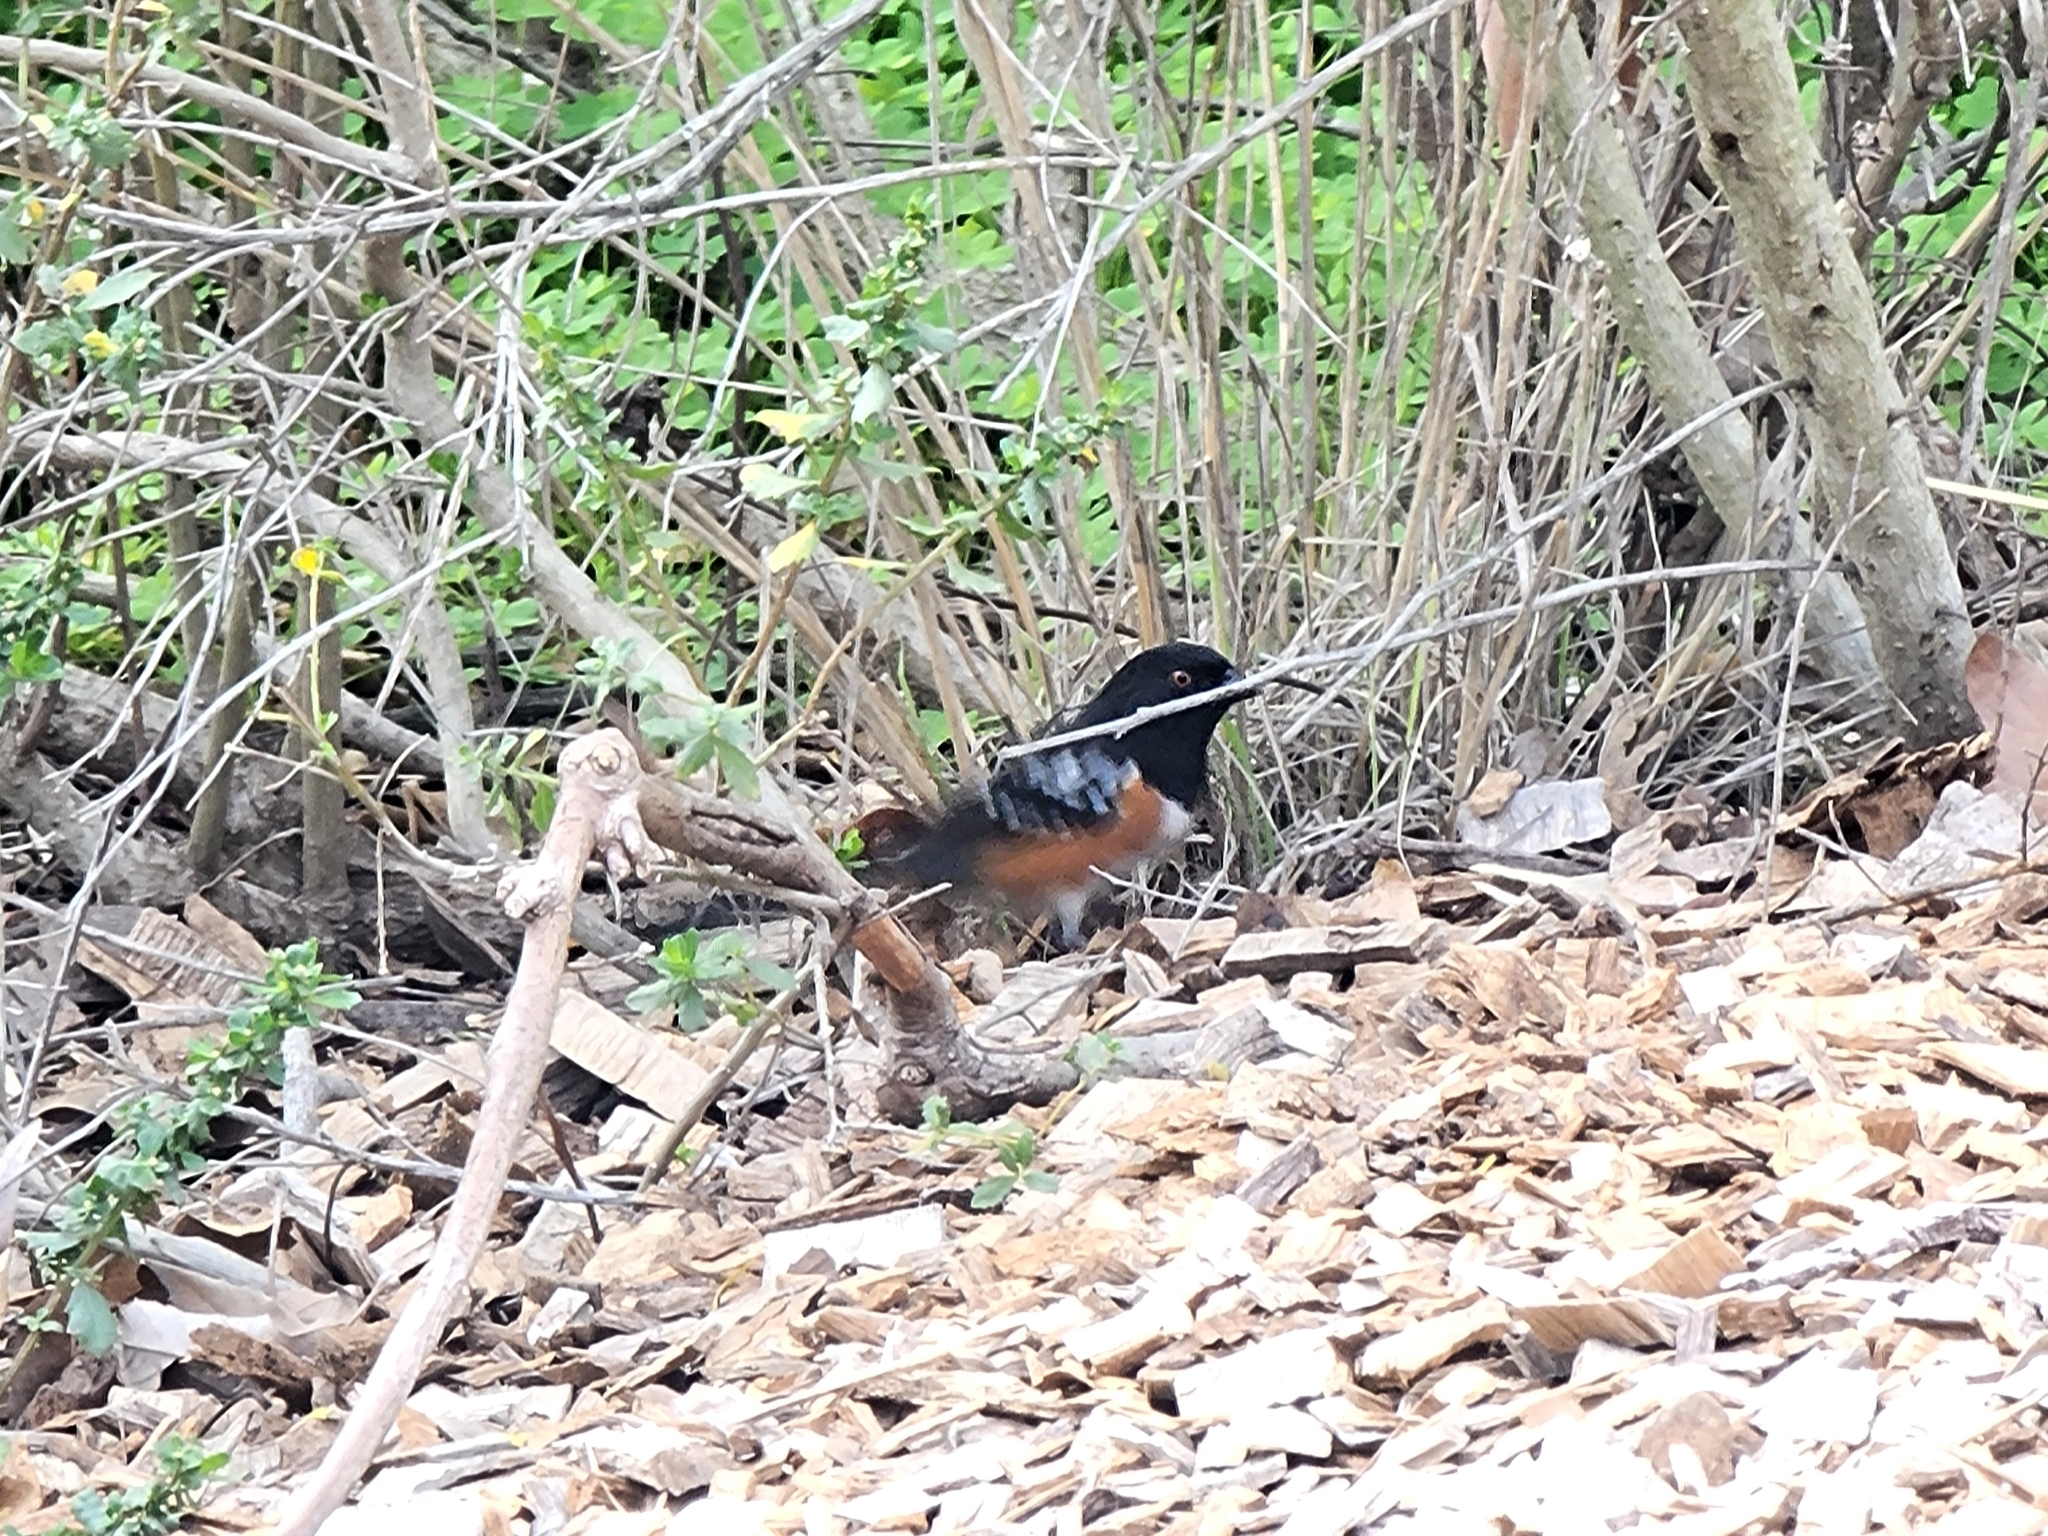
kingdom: Animalia
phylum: Chordata
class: Aves
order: Passeriformes
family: Passerellidae
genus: Pipilo
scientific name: Pipilo maculatus
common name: Spotted towhee
